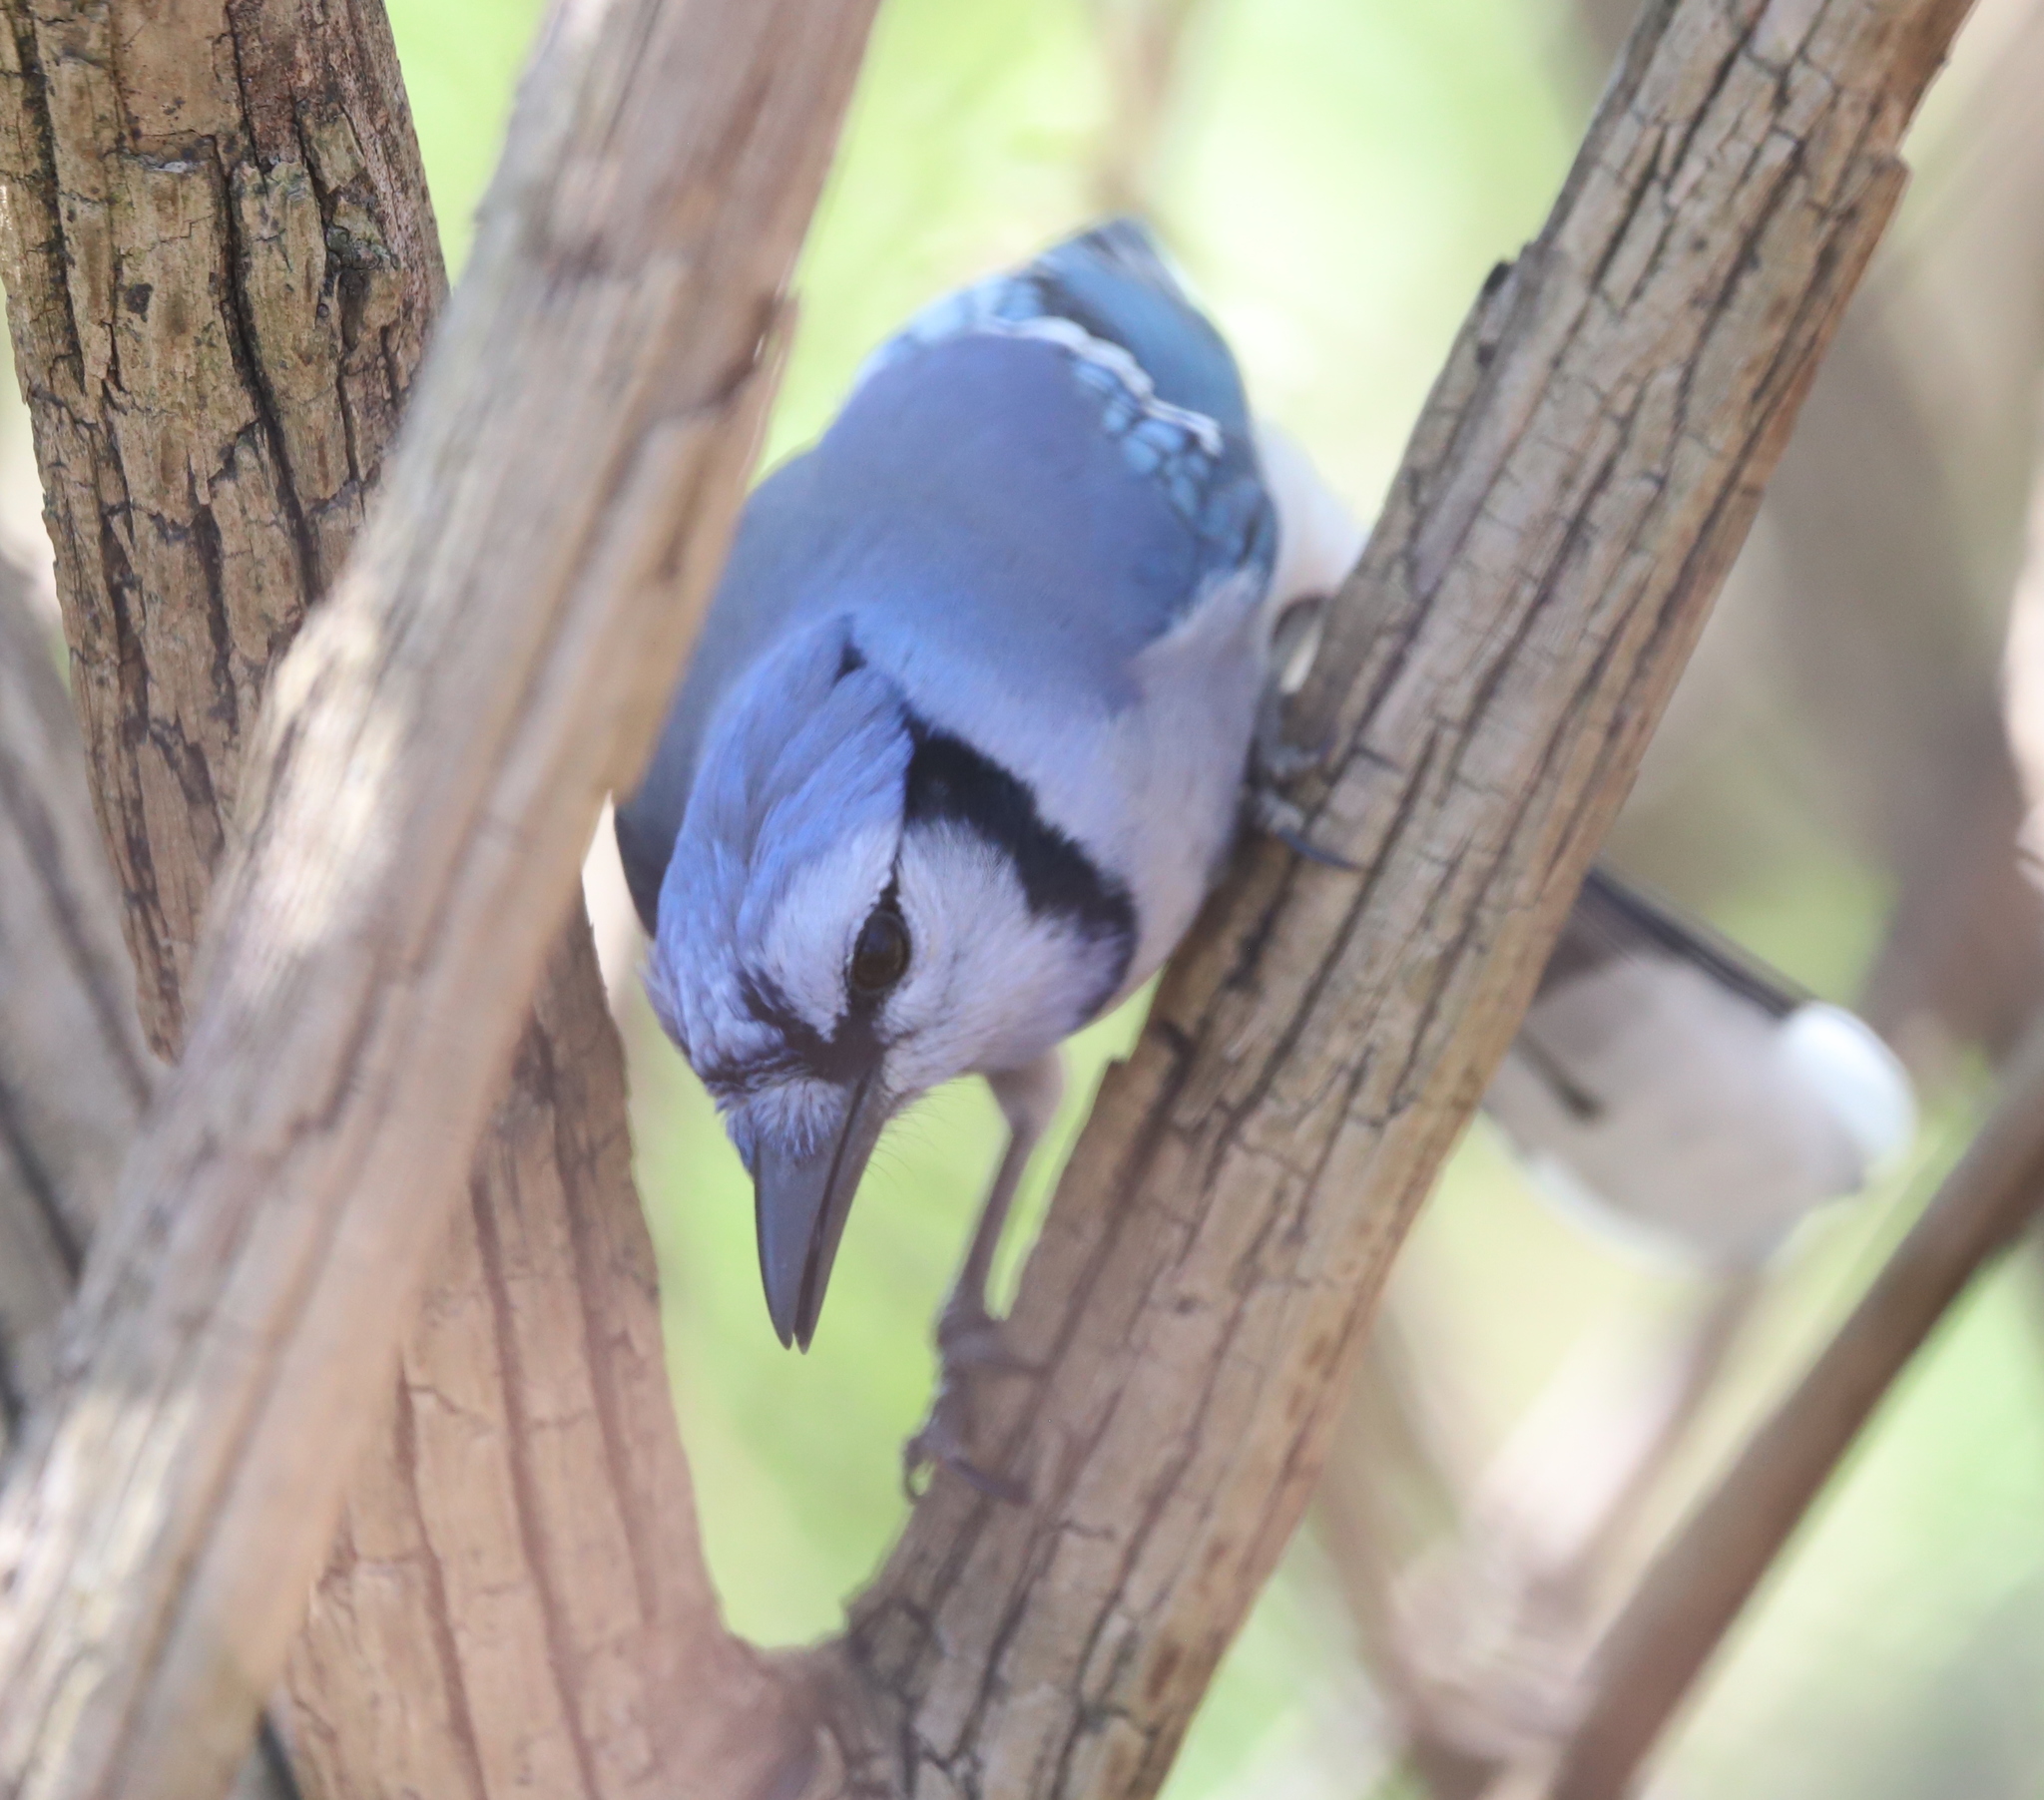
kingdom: Animalia
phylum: Chordata
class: Aves
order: Passeriformes
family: Corvidae
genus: Cyanocitta
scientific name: Cyanocitta cristata
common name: Blue jay
